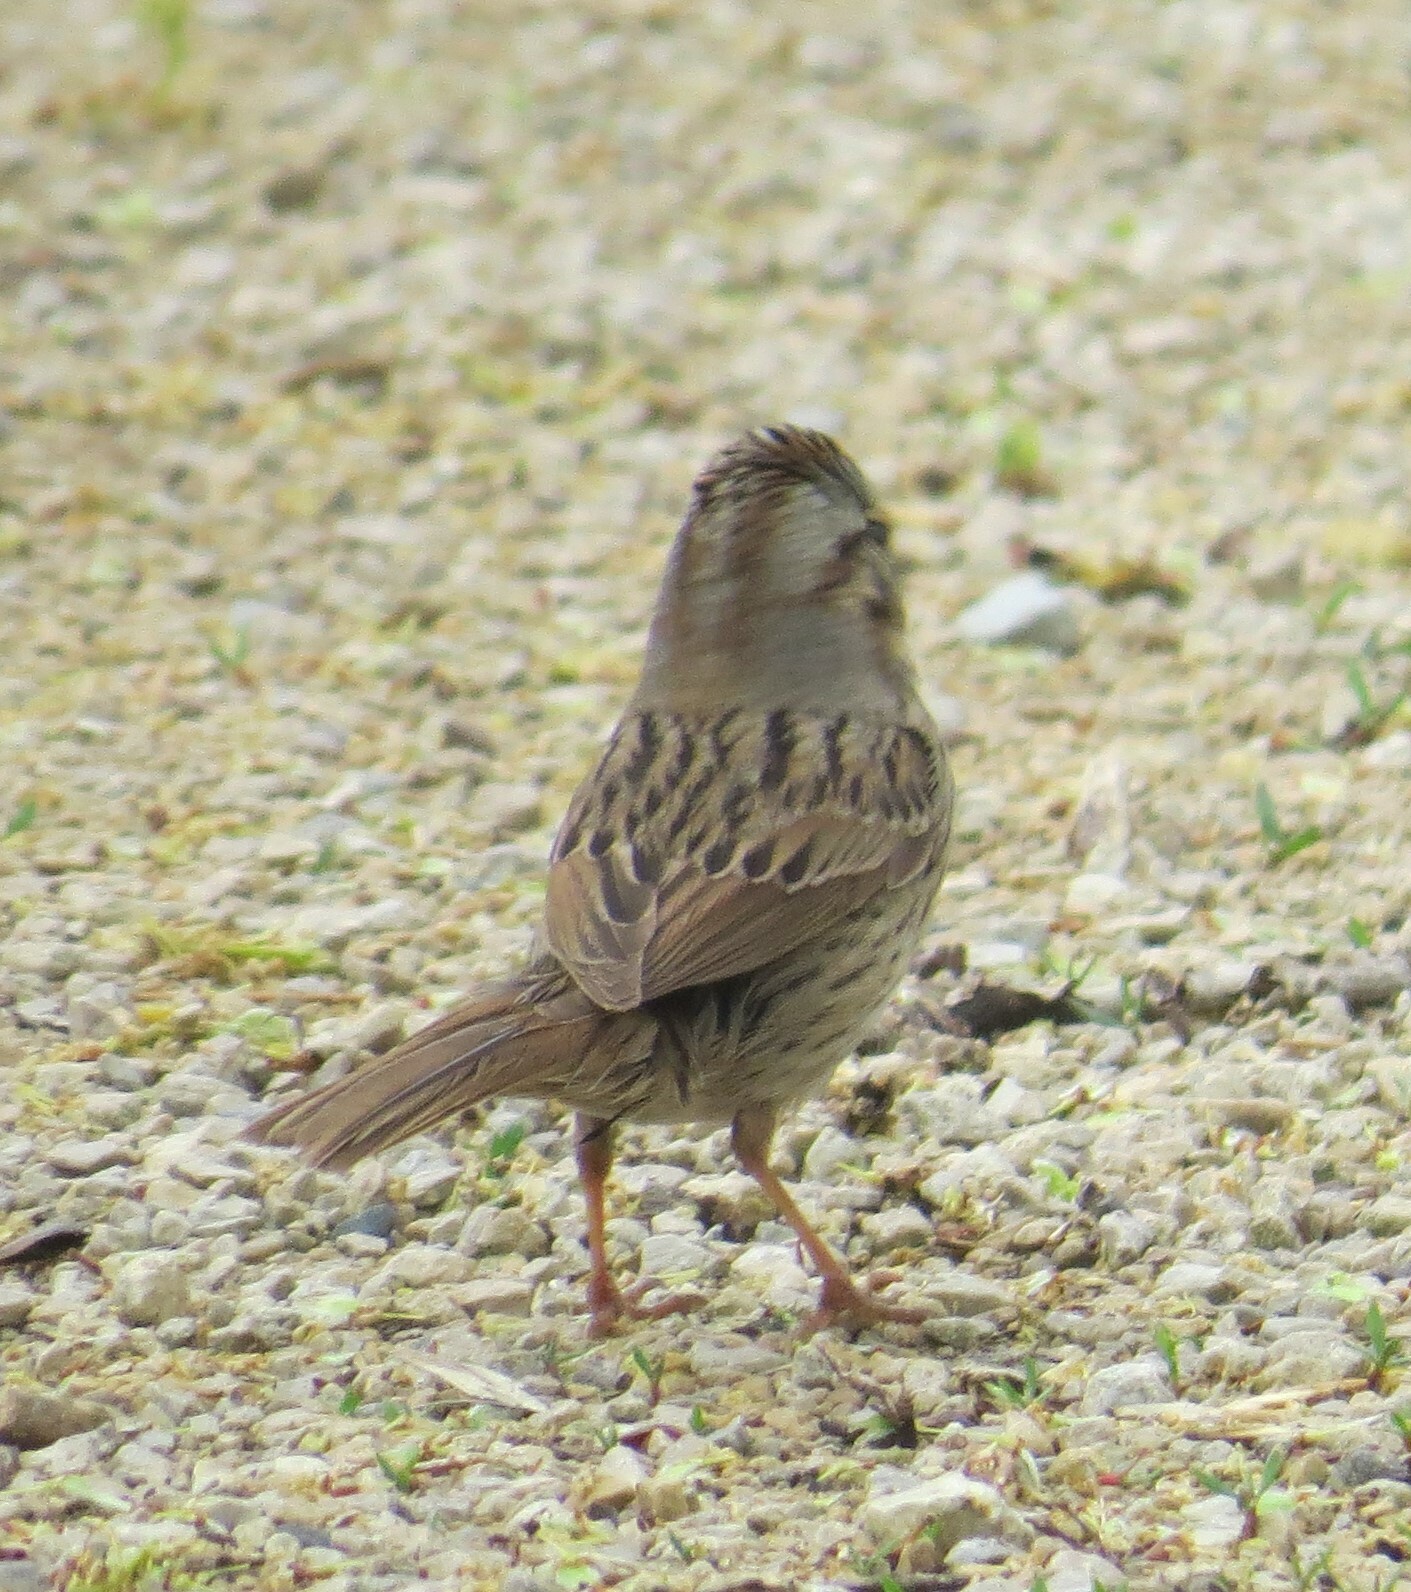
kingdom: Animalia
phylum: Chordata
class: Aves
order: Passeriformes
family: Passerellidae
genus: Melospiza
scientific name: Melospiza lincolnii
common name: Lincoln's sparrow
